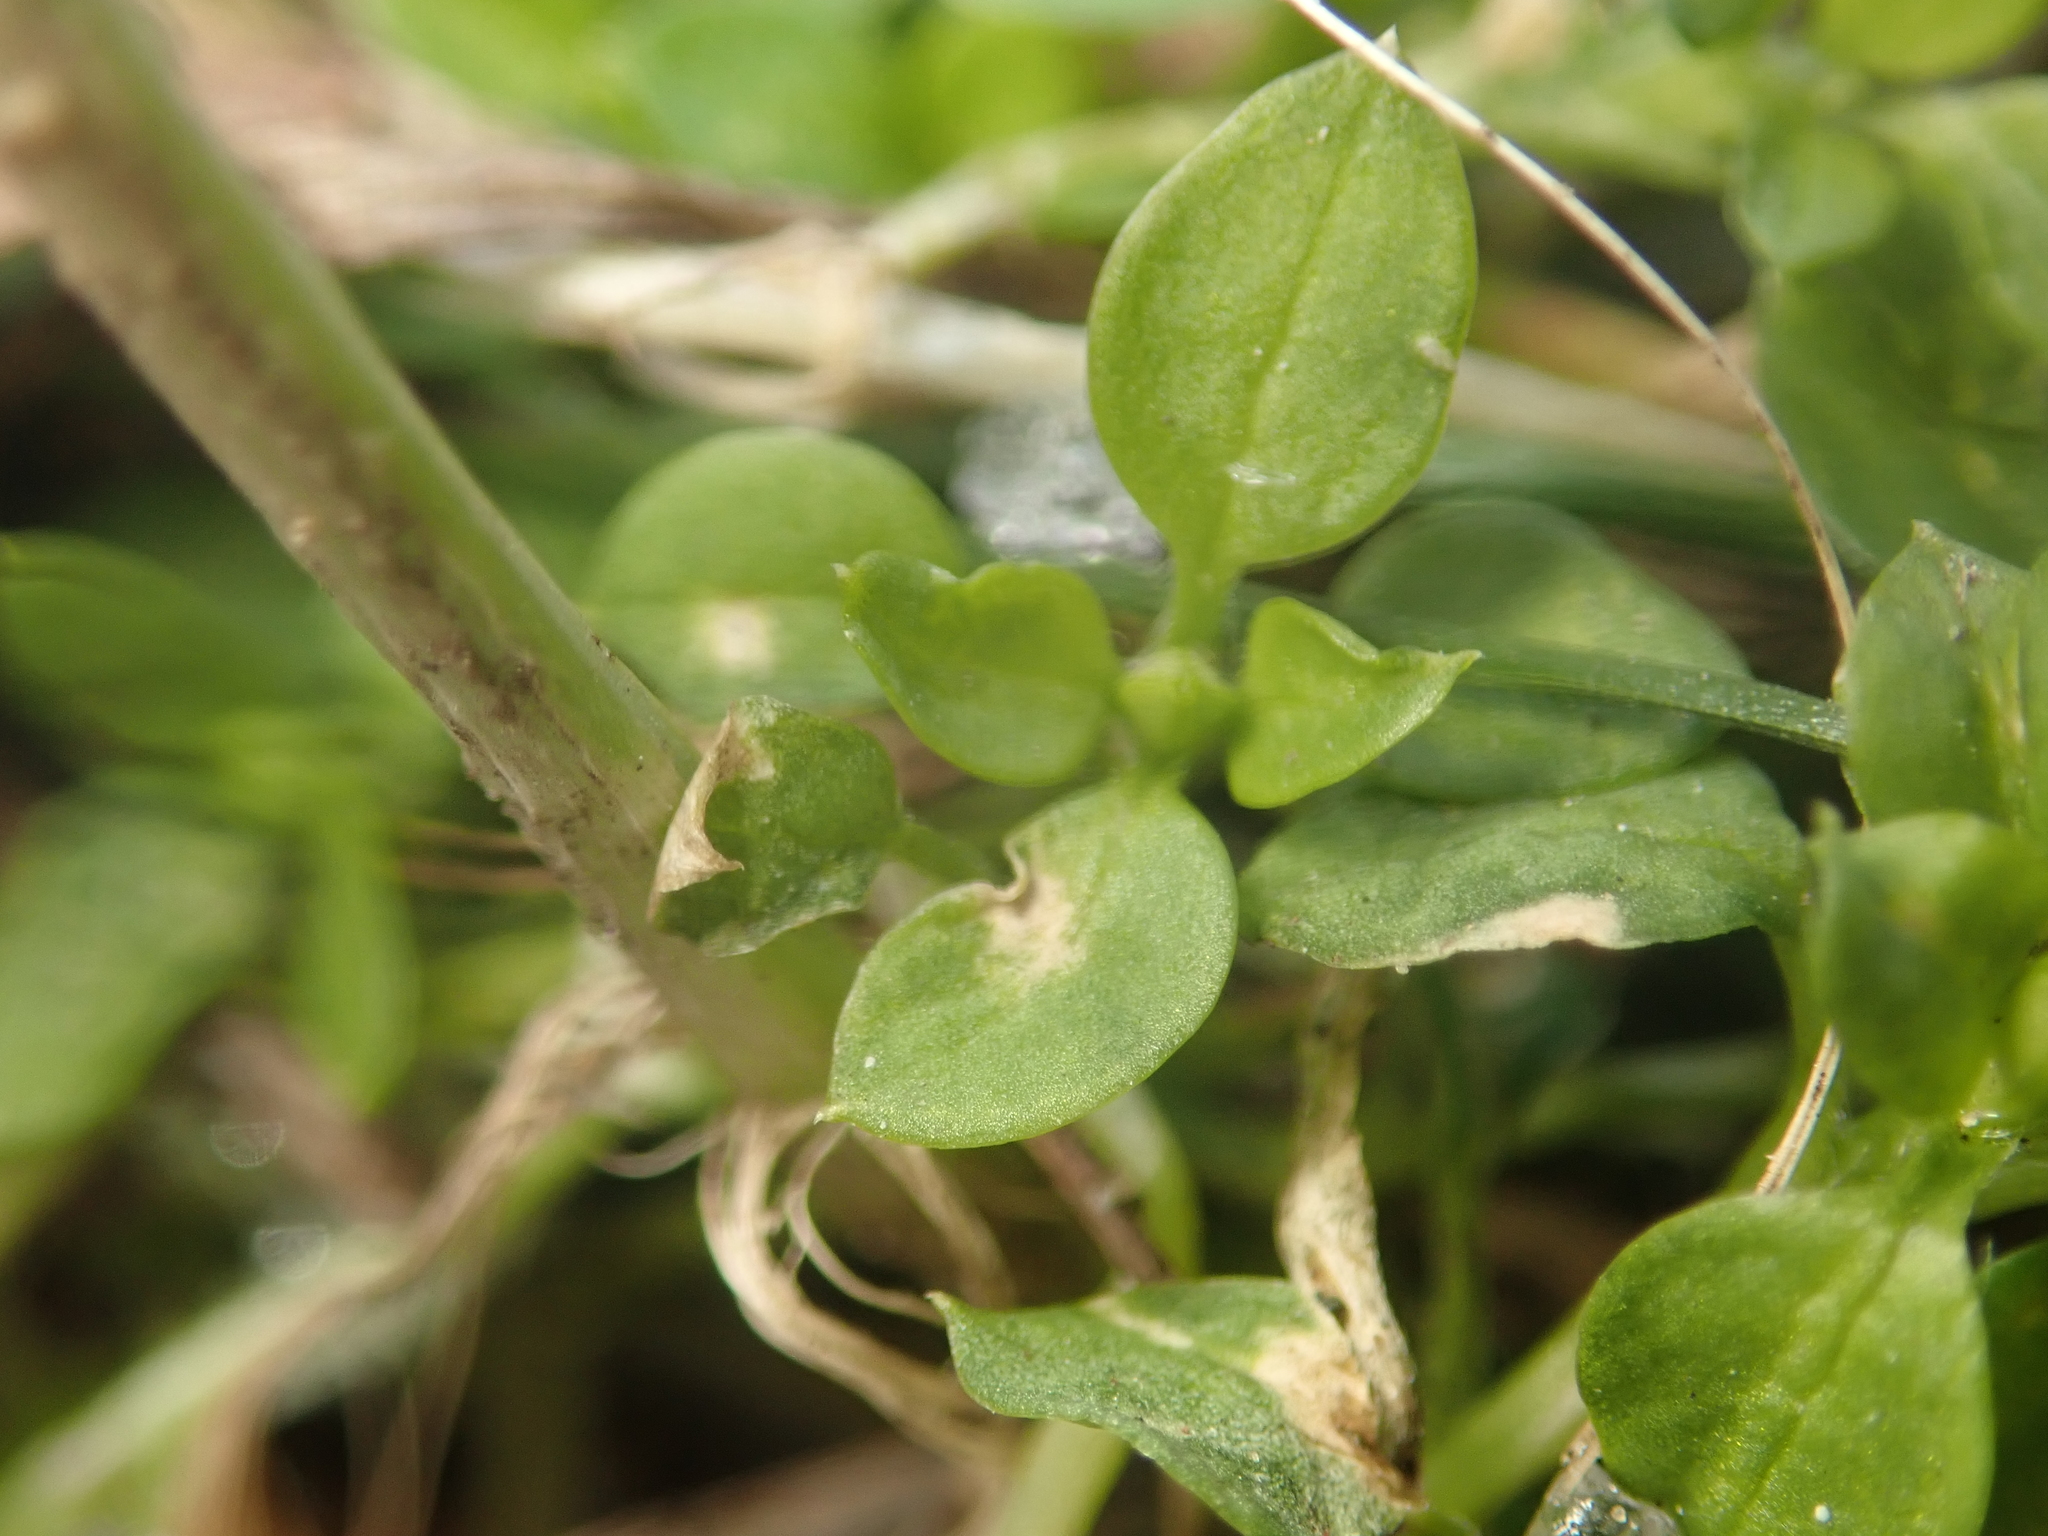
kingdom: Plantae
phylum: Tracheophyta
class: Magnoliopsida
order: Caryophyllales
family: Caryophyllaceae
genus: Stellaria
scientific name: Stellaria media
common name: Common chickweed
